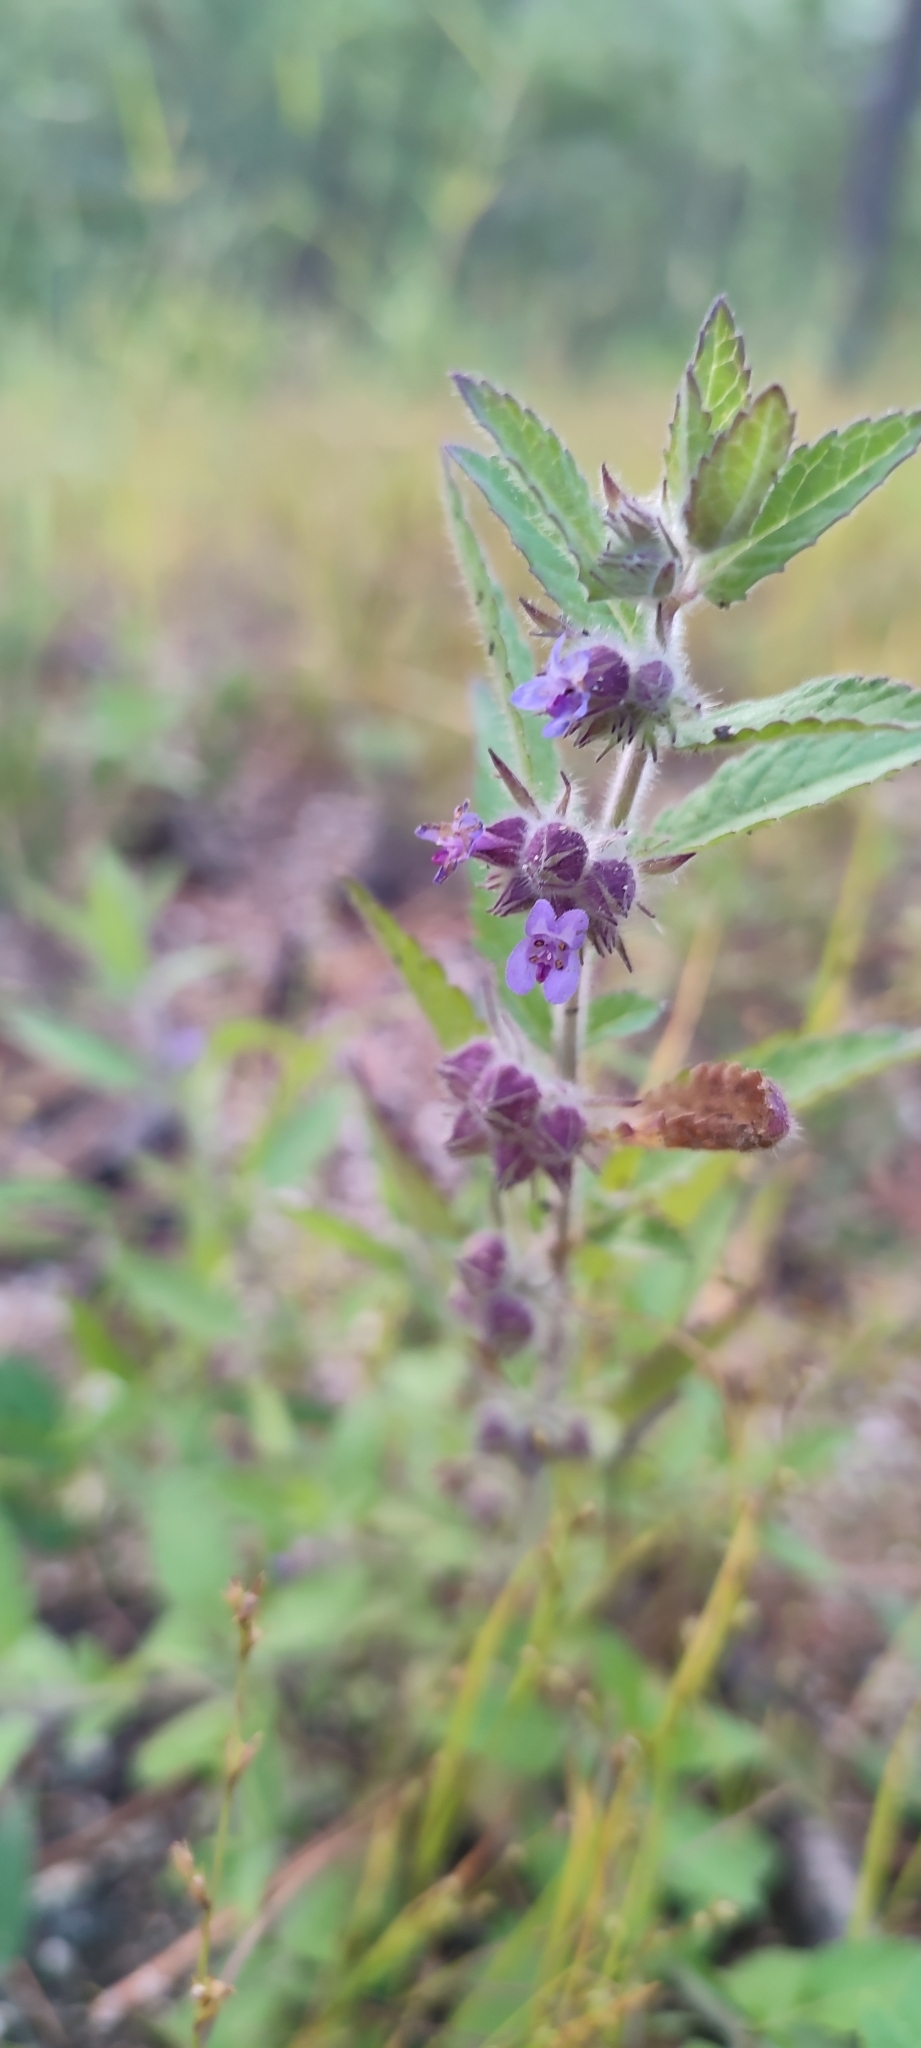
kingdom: Plantae
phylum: Tracheophyta
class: Magnoliopsida
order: Lamiales
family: Lamiaceae
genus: Marsypianthes
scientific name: Marsypianthes chamaedrys
